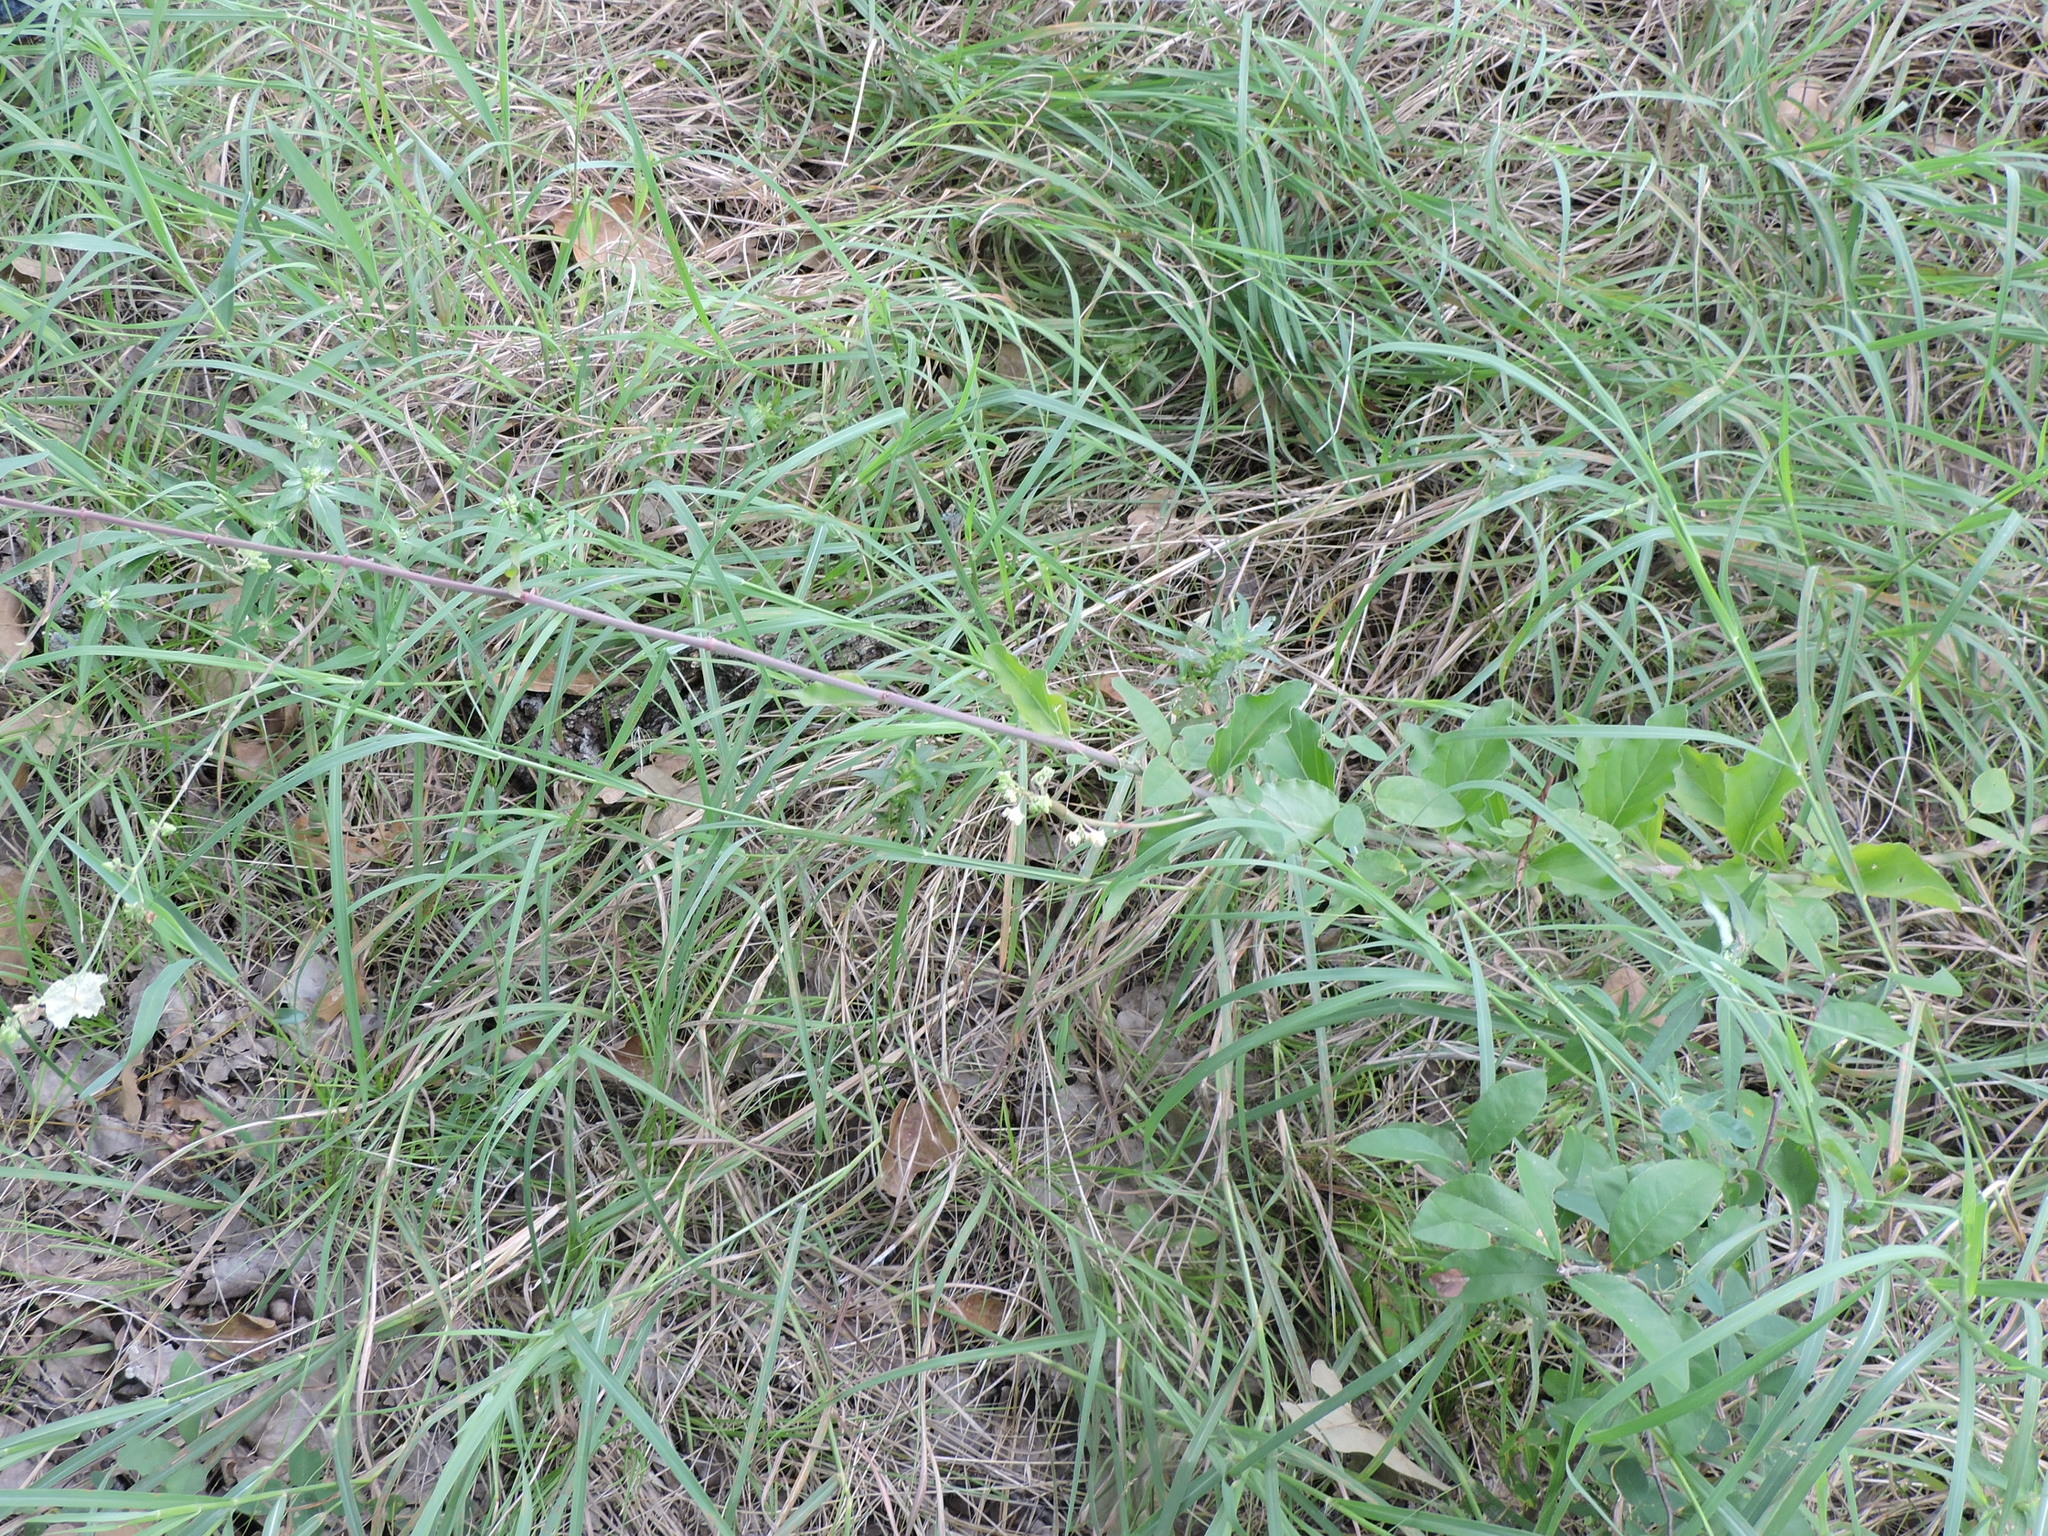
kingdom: Plantae
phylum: Tracheophyta
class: Magnoliopsida
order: Caryophyllales
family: Nyctaginaceae
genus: Mirabilis
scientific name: Mirabilis nyctaginea
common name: Umbrella wort
